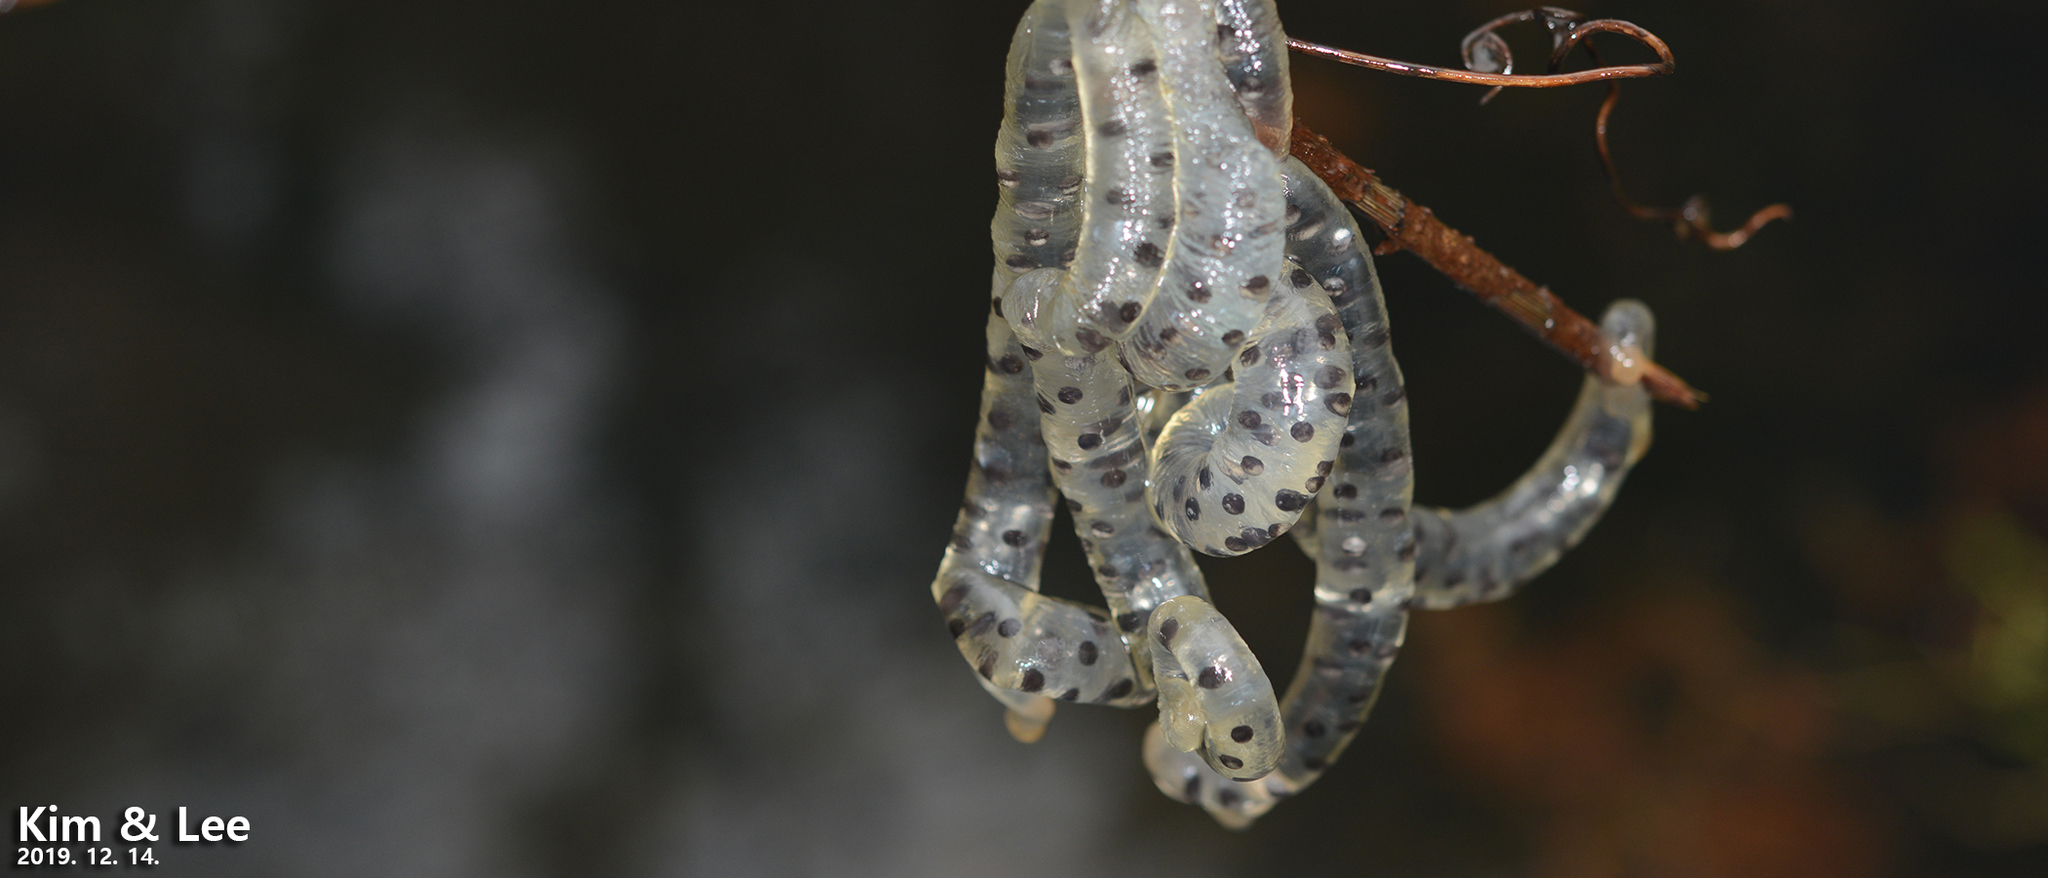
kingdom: Animalia
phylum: Chordata
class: Amphibia
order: Caudata
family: Hynobiidae
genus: Hynobius
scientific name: Hynobius quelpaertensis
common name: Cheju salamander
